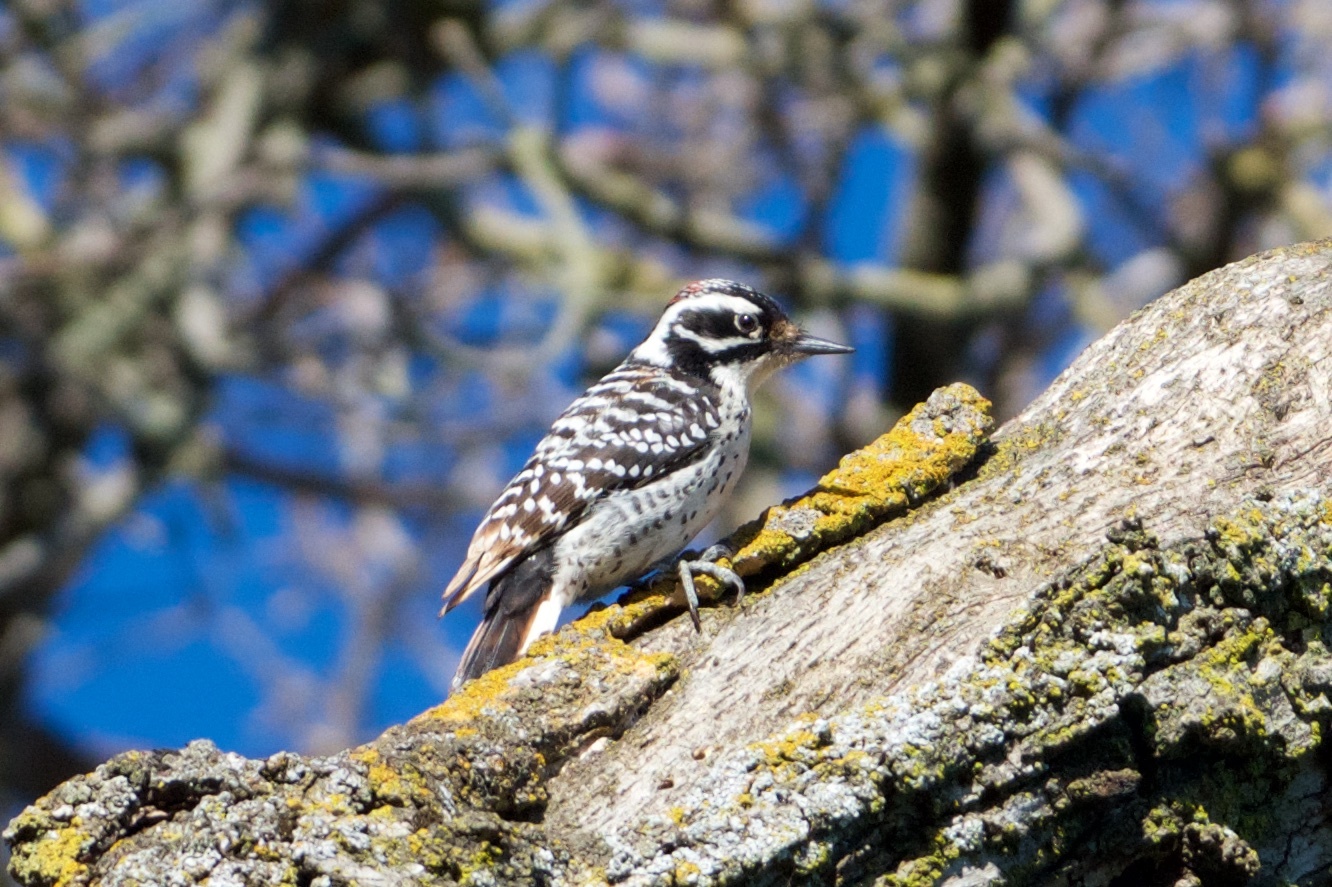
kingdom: Animalia
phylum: Chordata
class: Aves
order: Piciformes
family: Picidae
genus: Dryobates
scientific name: Dryobates nuttallii
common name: Nuttall's woodpecker
